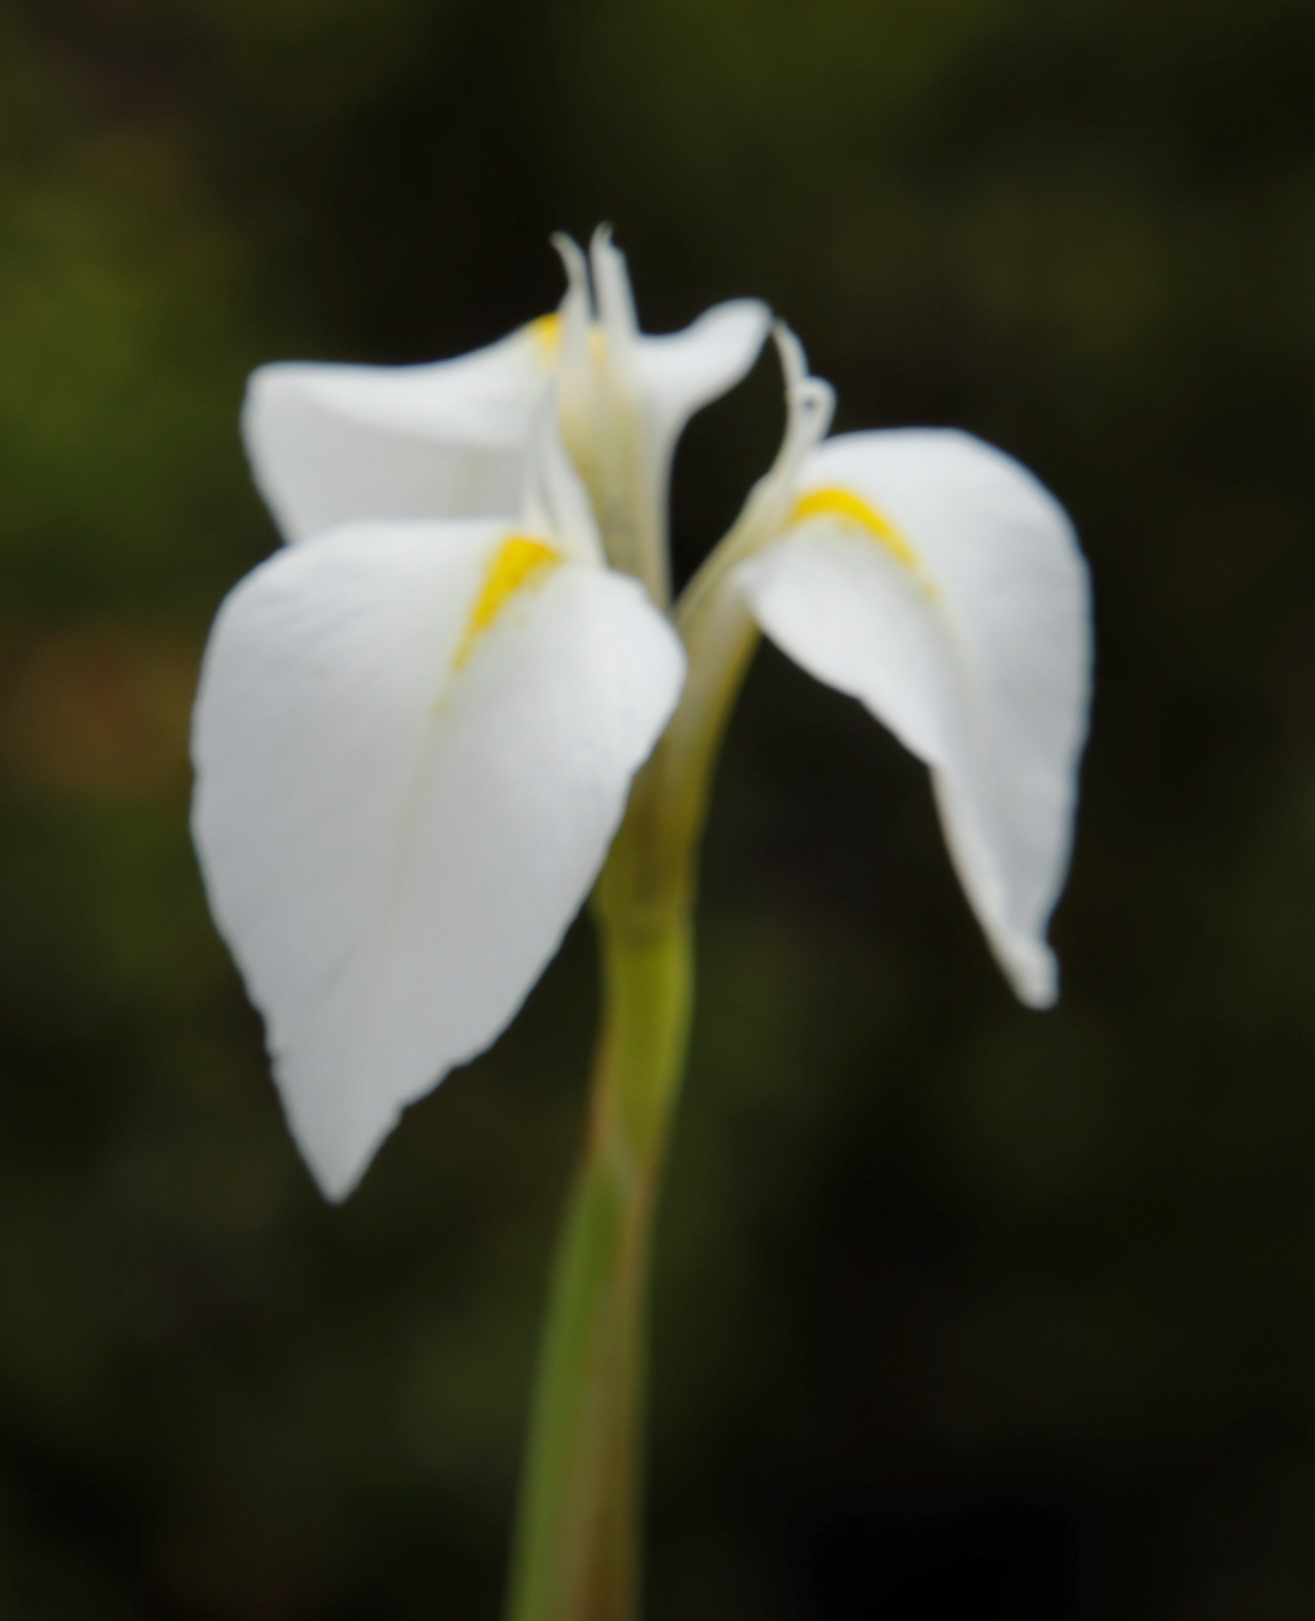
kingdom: Plantae
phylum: Tracheophyta
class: Liliopsida
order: Asparagales
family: Iridaceae
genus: Moraea
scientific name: Moraea albicuspa
